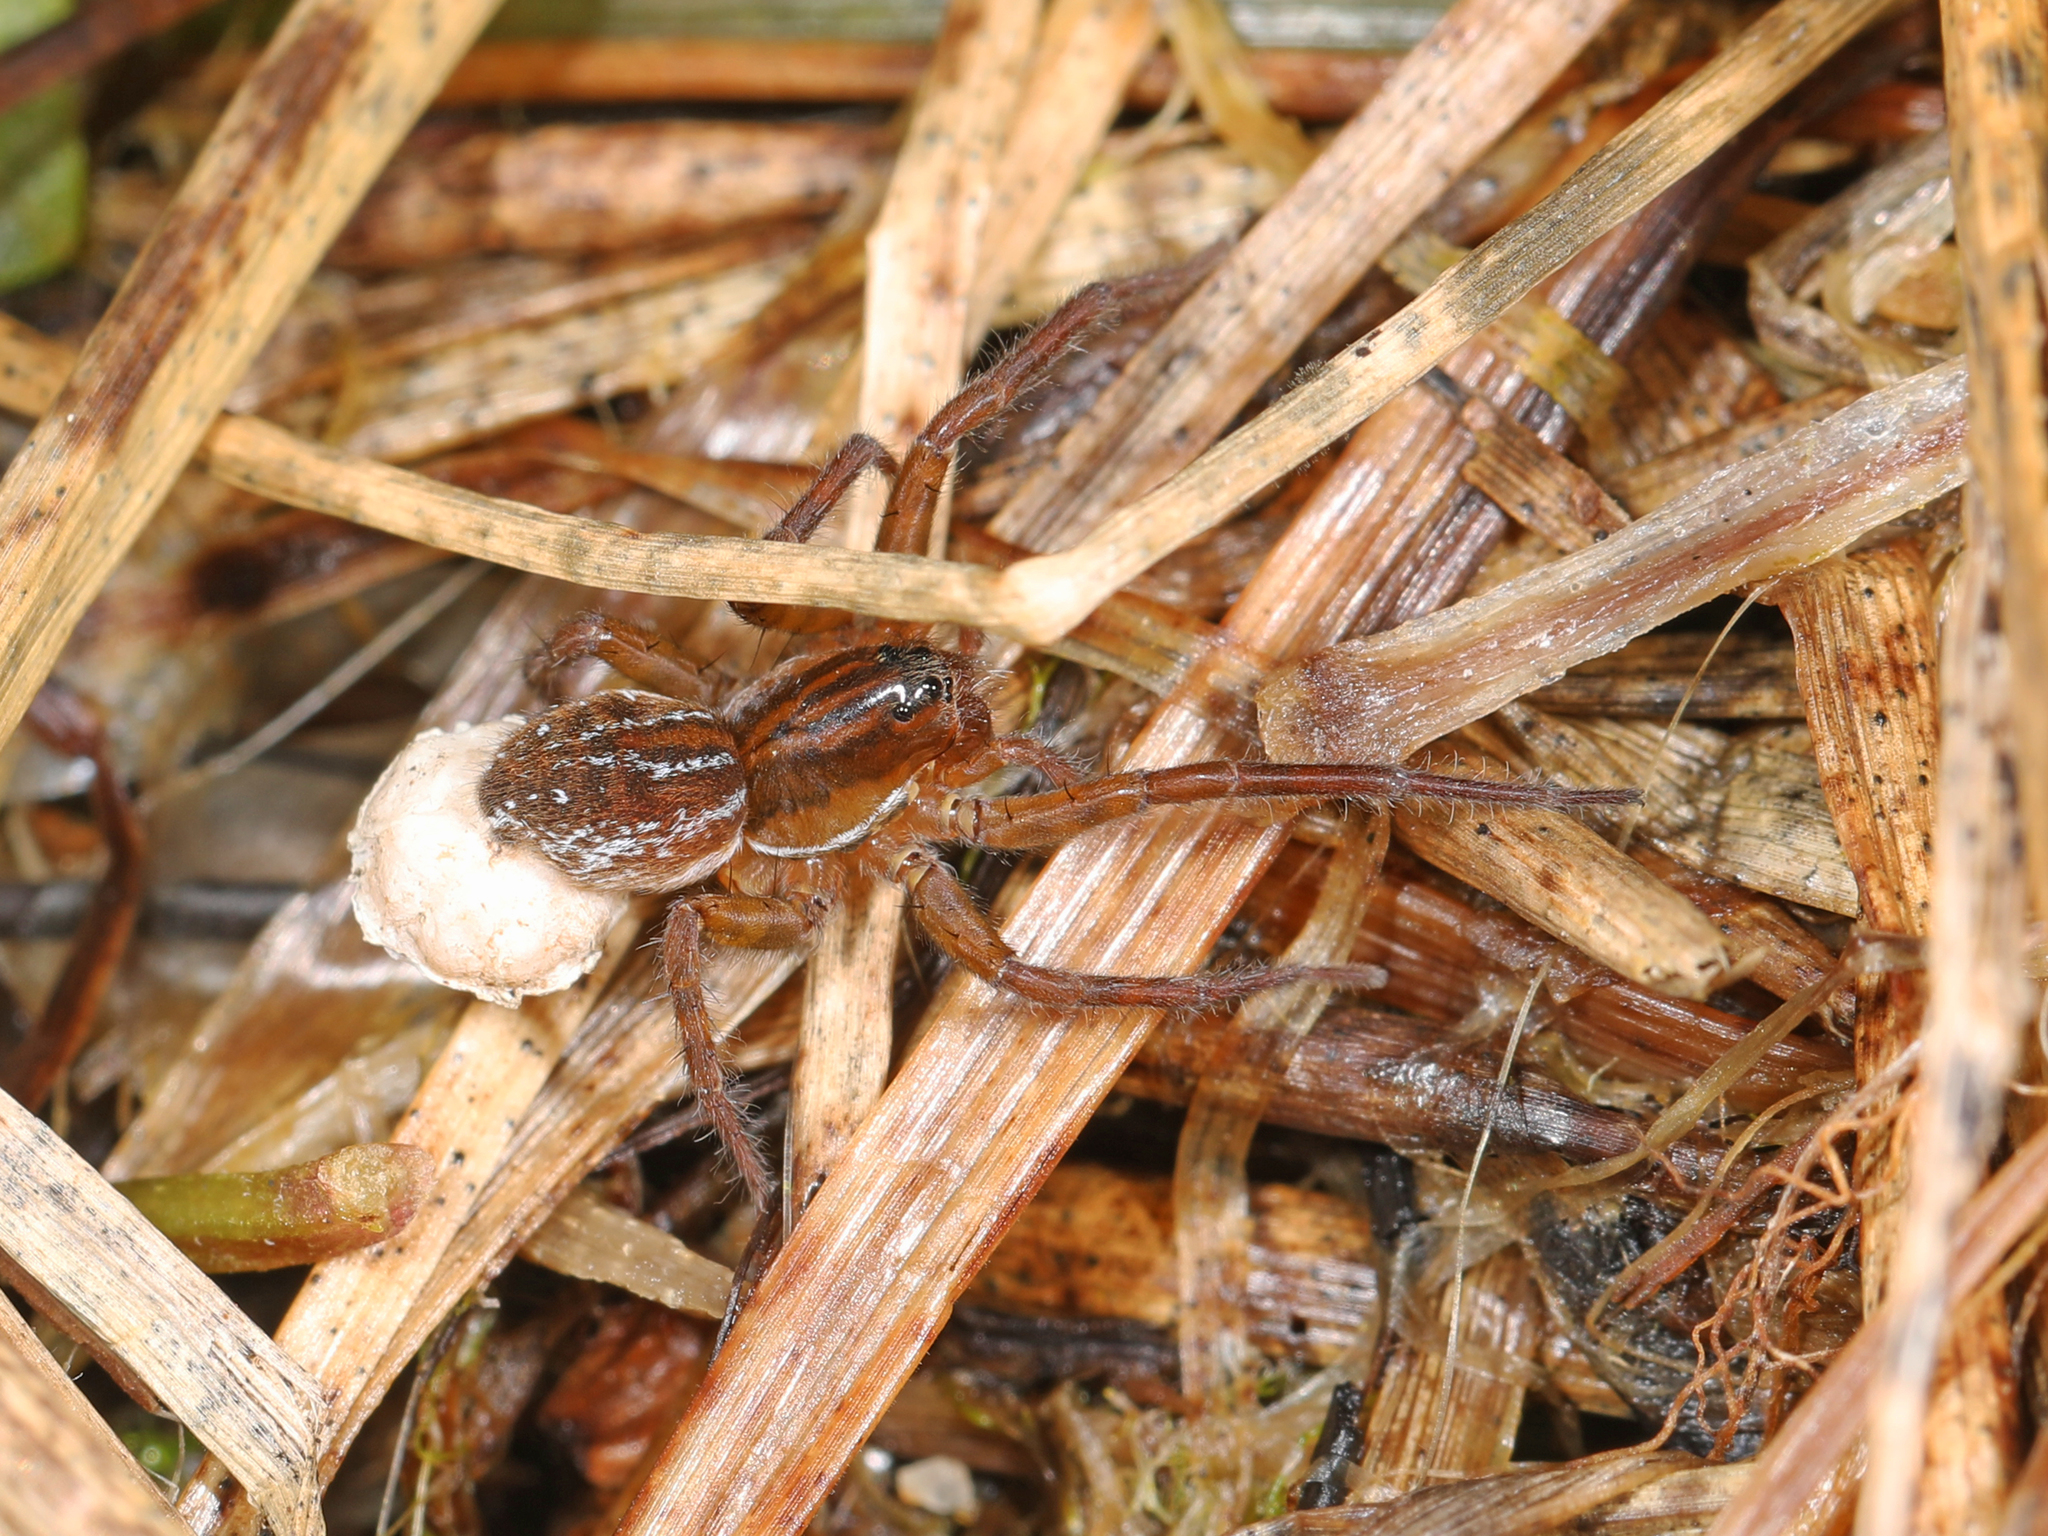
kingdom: Animalia
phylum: Arthropoda
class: Arachnida
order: Araneae
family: Lycosidae
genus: Pirata
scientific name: Pirata piraticus
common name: Pirate otter spider
